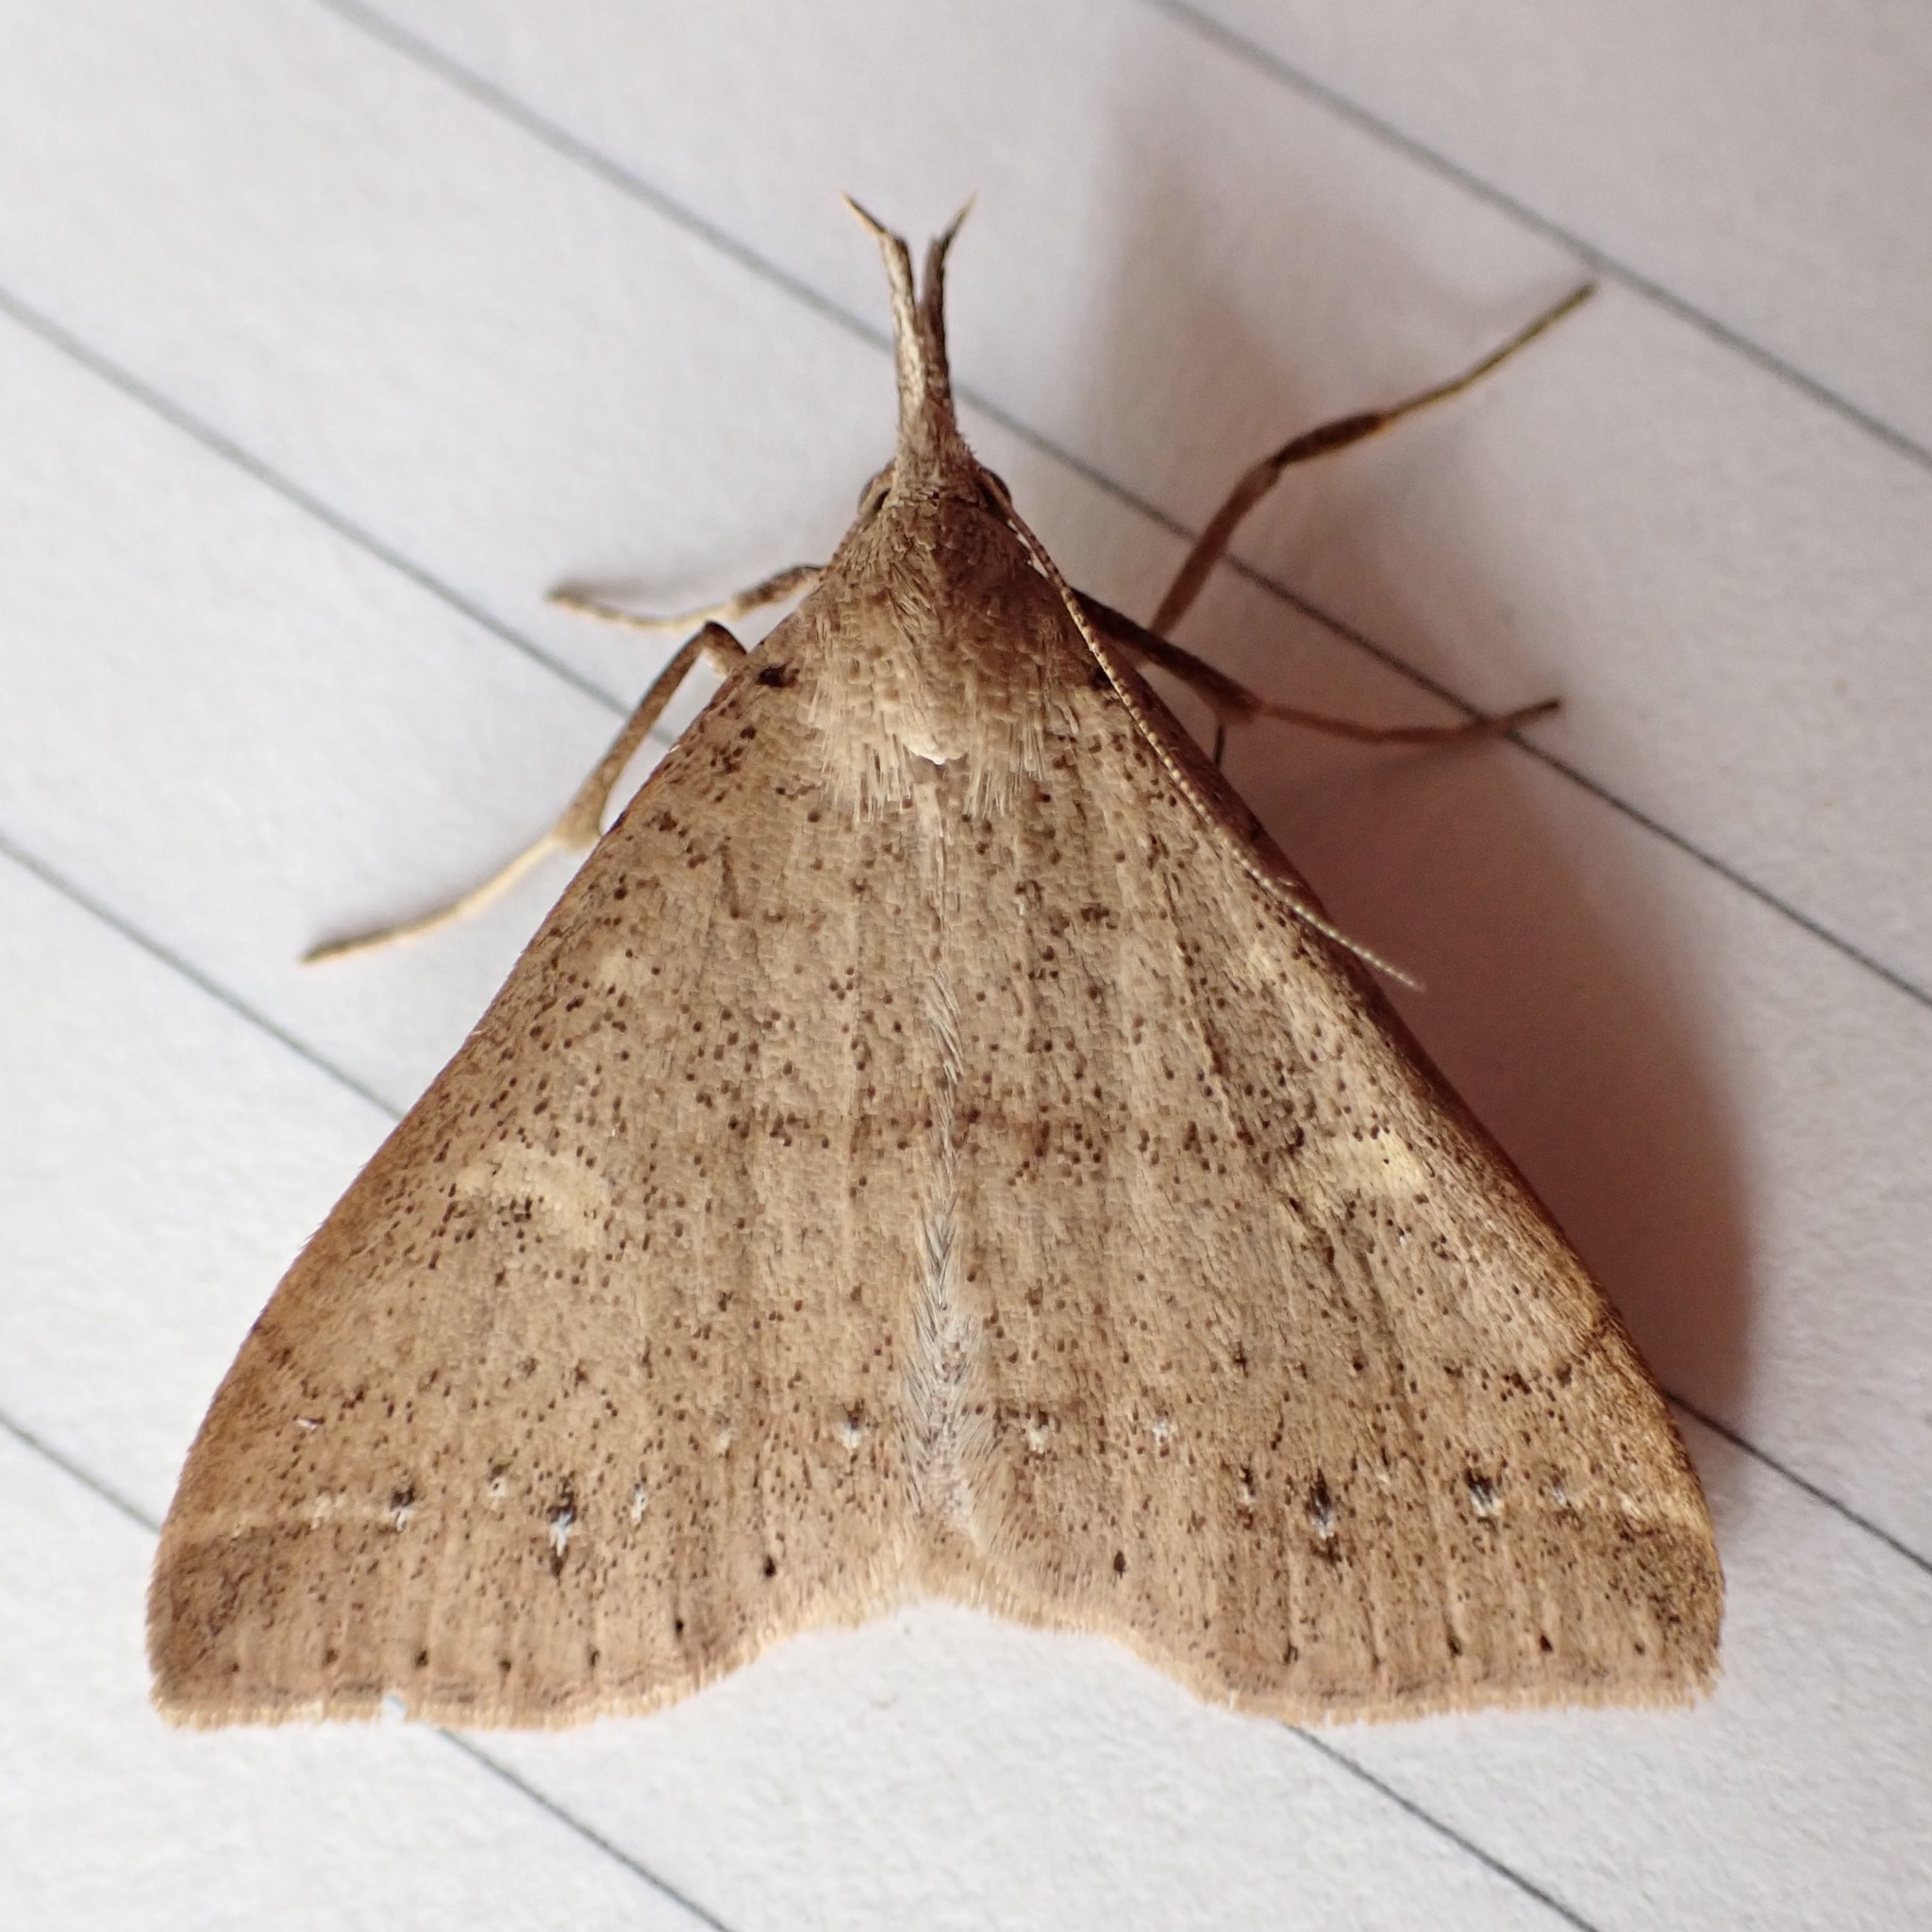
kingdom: Animalia
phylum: Arthropoda
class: Insecta
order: Lepidoptera
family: Erebidae
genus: Renia
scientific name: Renia salusalis
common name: Dotted renia moth
